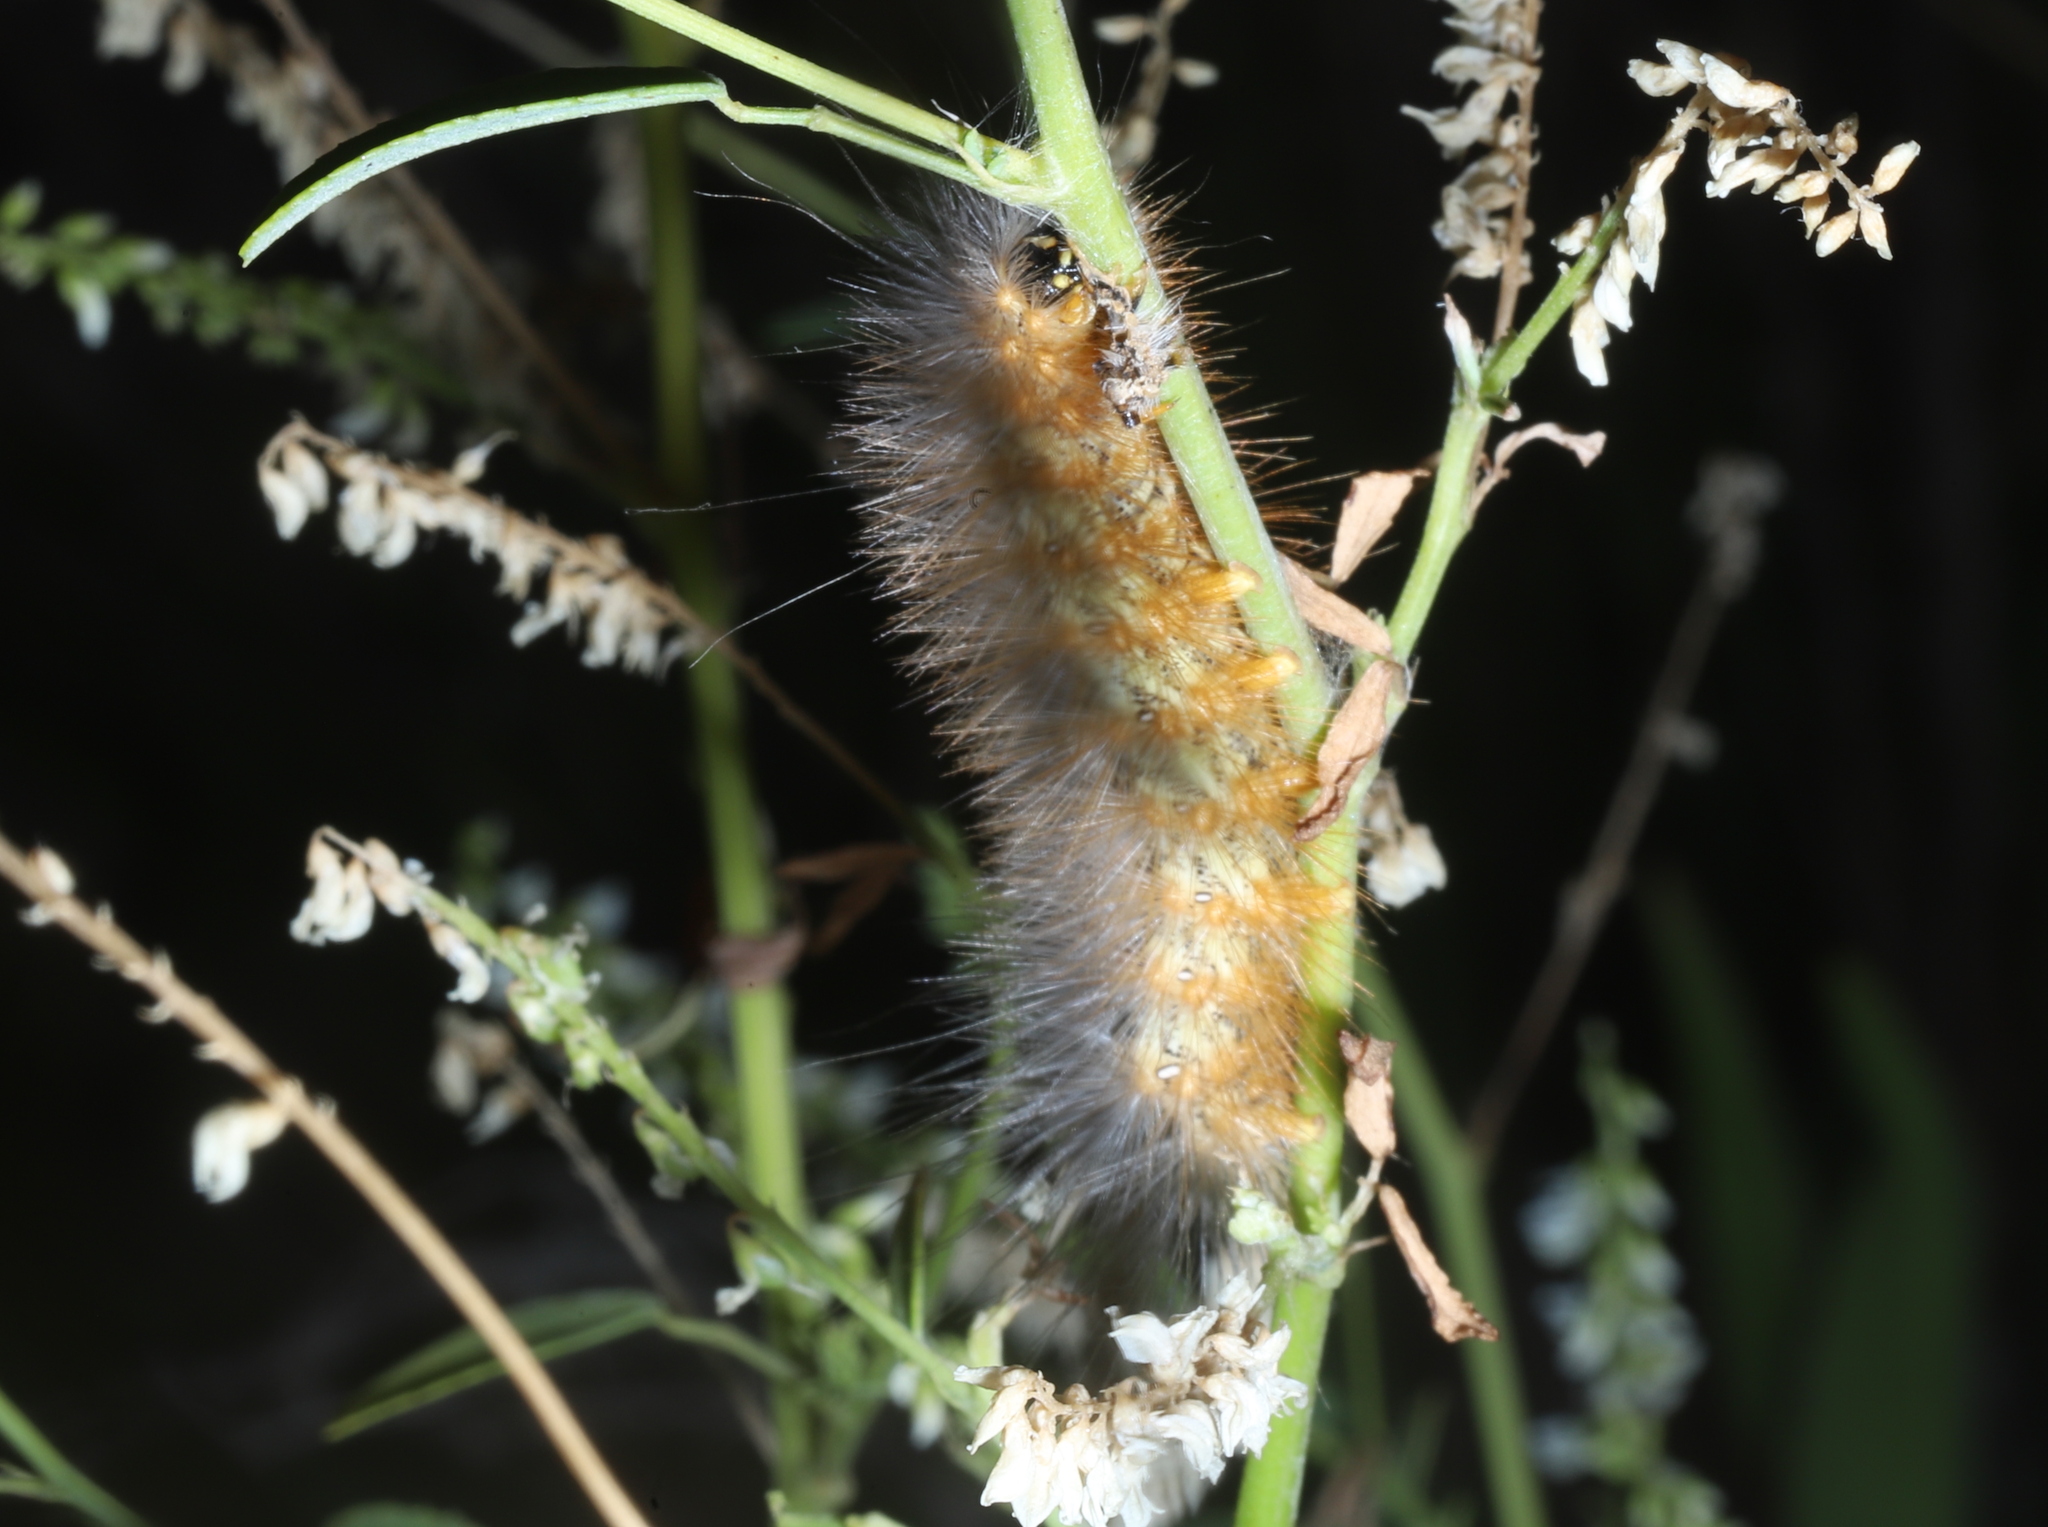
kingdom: Animalia
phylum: Arthropoda
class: Insecta
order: Lepidoptera
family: Erebidae
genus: Estigmene
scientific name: Estigmene acrea
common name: Salt marsh moth
